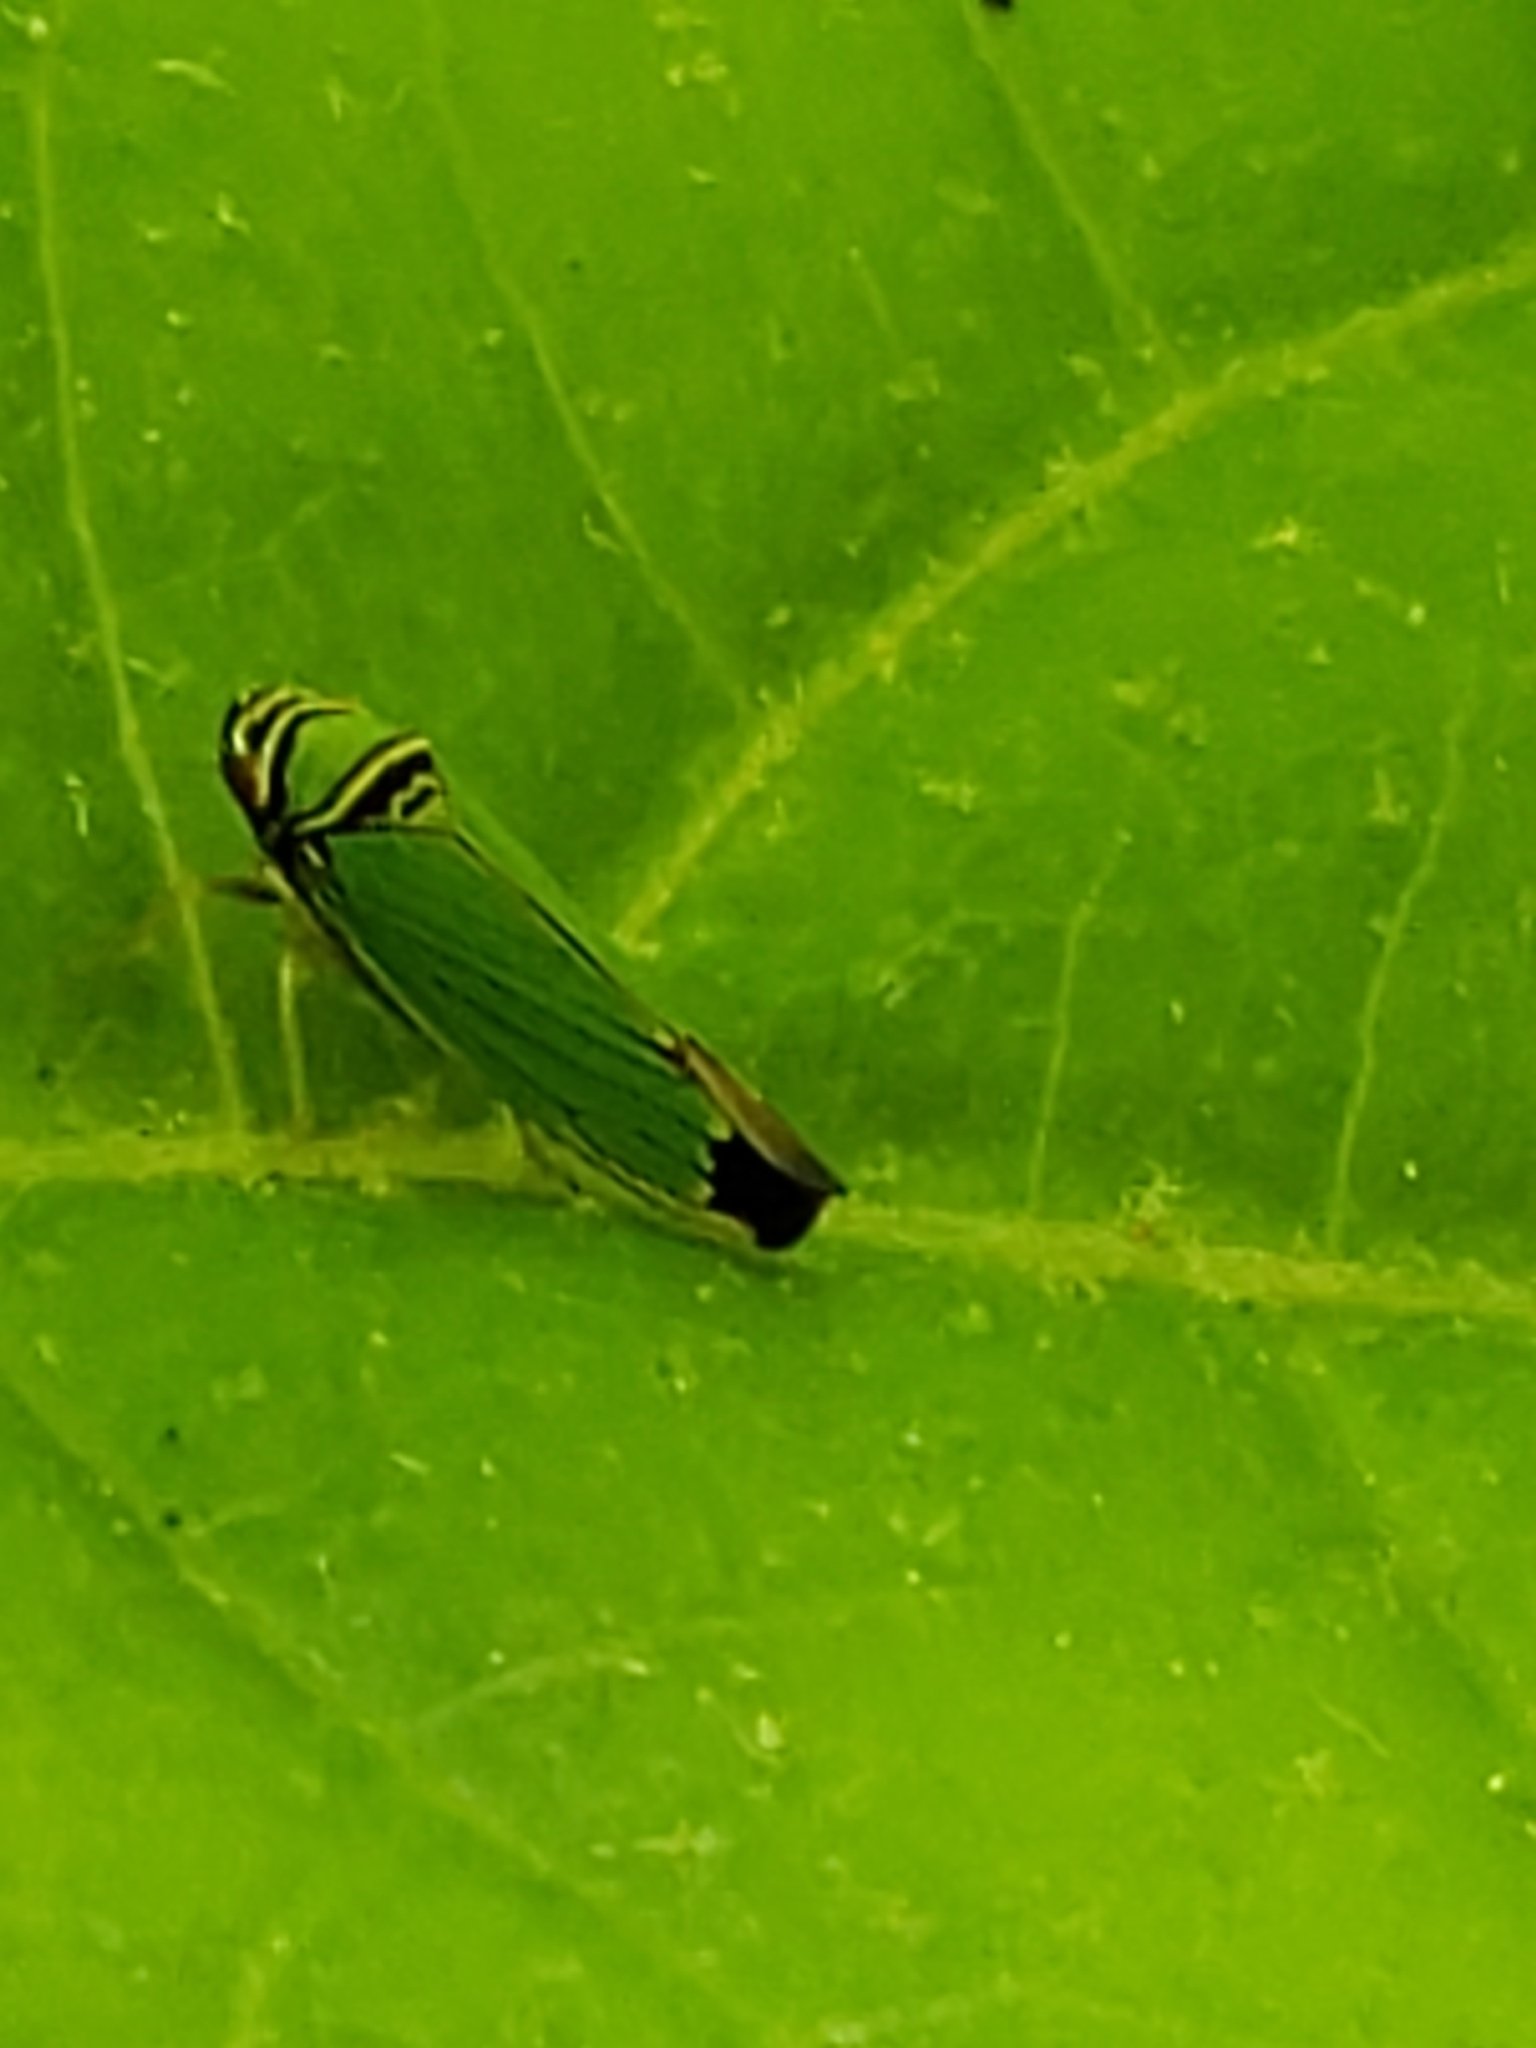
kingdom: Animalia
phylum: Arthropoda
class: Insecta
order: Hemiptera
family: Cicadellidae
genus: Tylozygus
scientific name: Tylozygus geometricus
